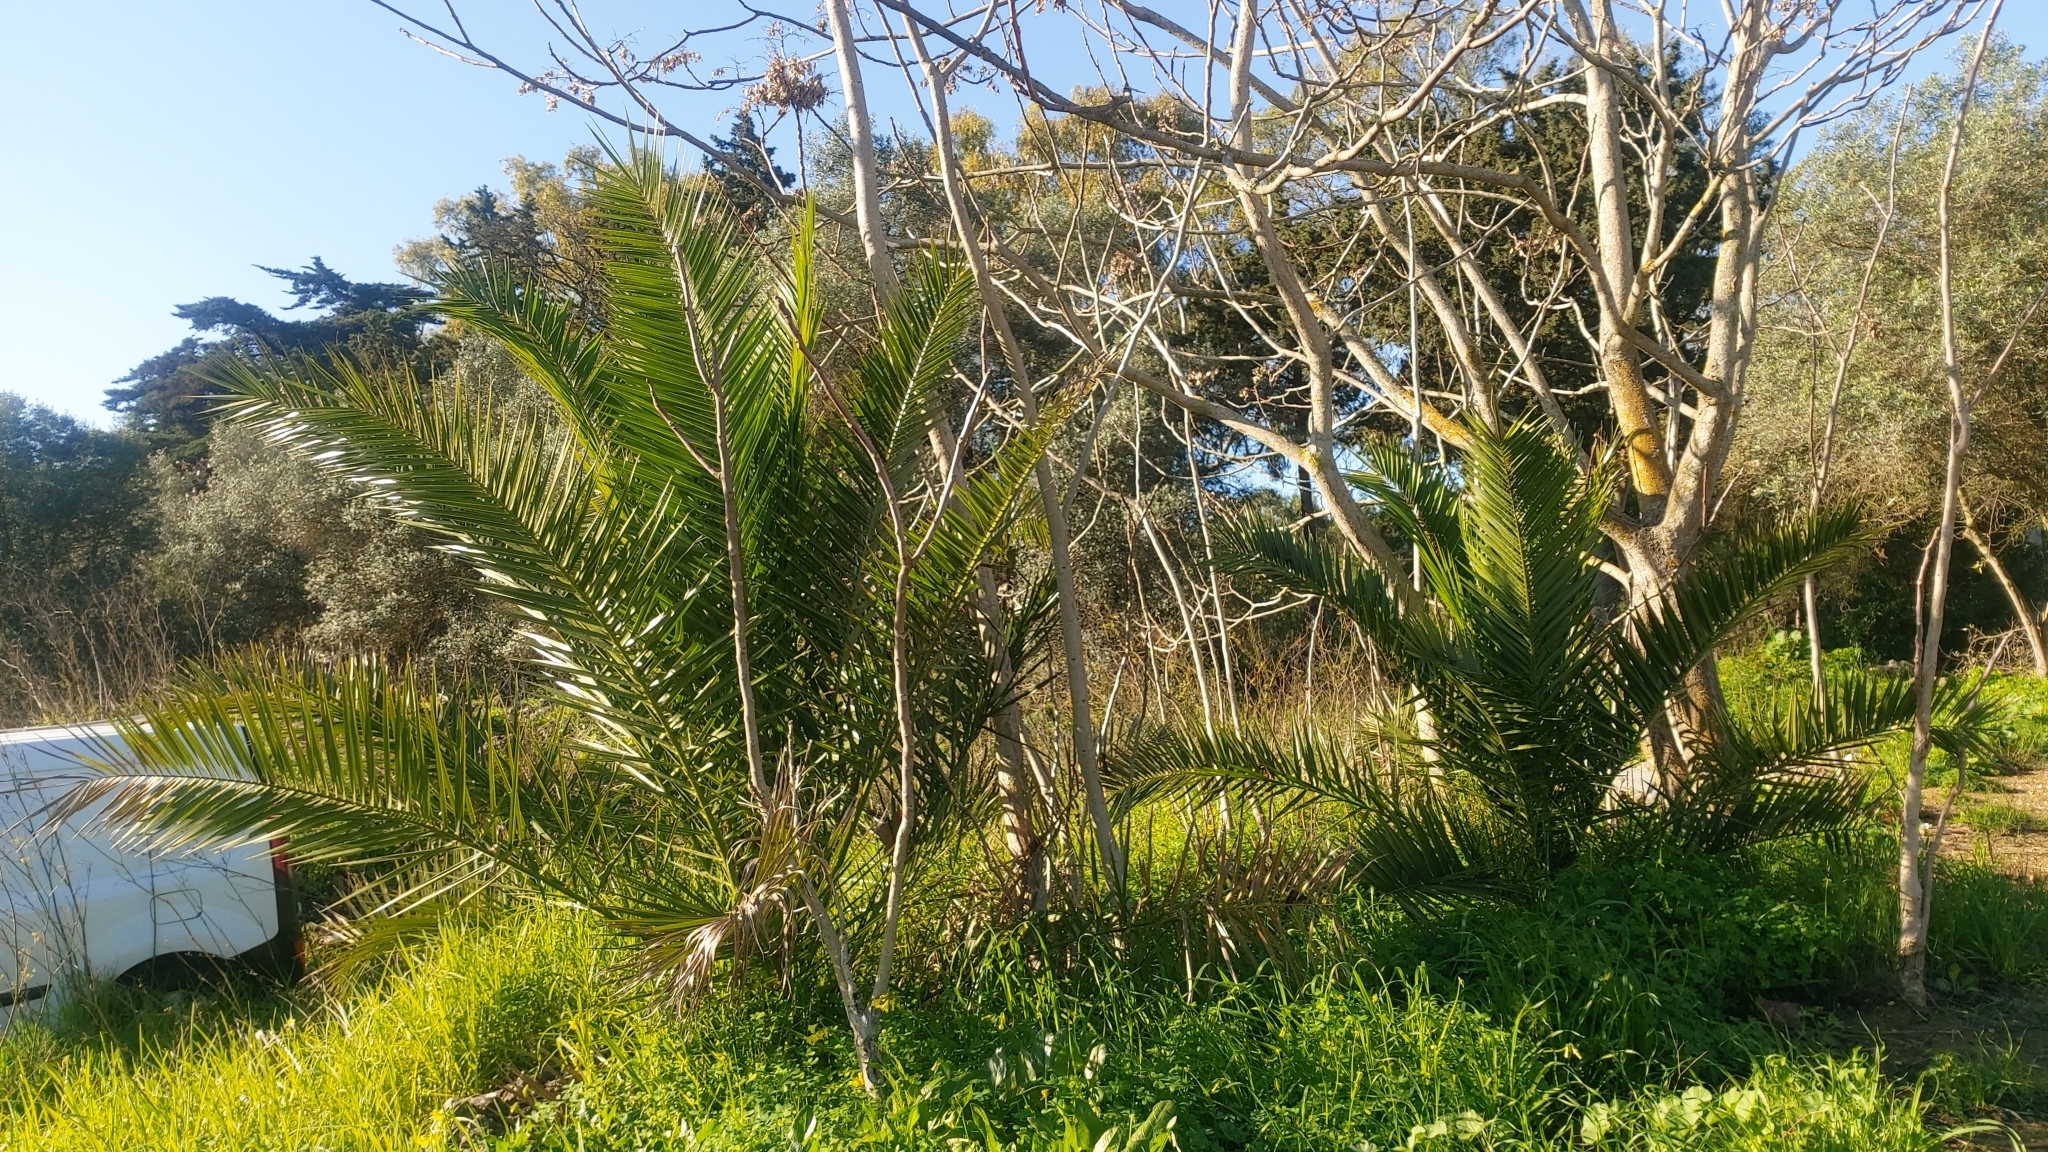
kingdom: Plantae
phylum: Tracheophyta
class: Liliopsida
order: Arecales
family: Arecaceae
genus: Phoenix
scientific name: Phoenix canariensis
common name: Canary island date palm
